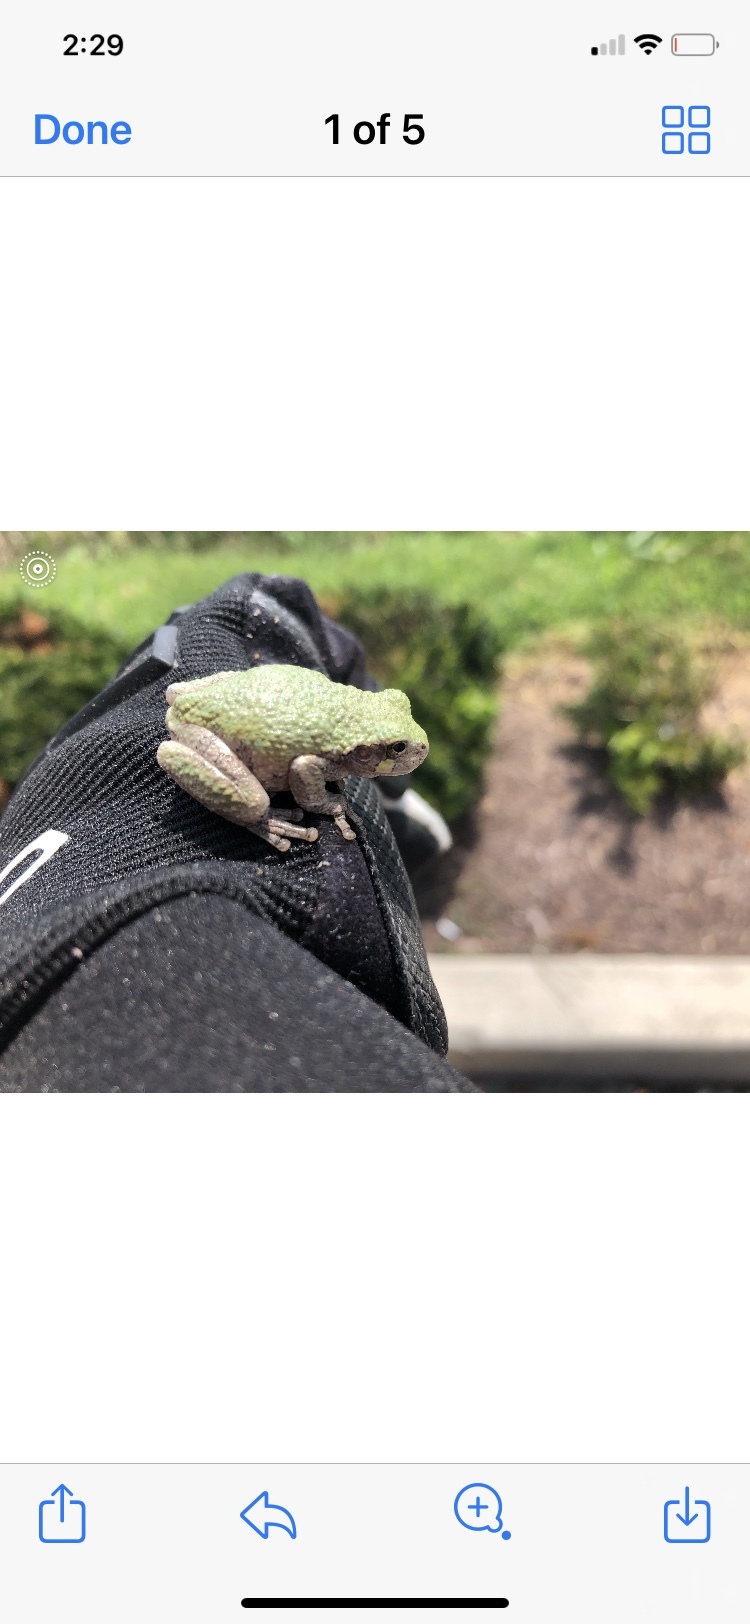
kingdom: Animalia
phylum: Chordata
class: Amphibia
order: Anura
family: Hylidae
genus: Dryophytes
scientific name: Dryophytes versicolor
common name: Gray treefrog
